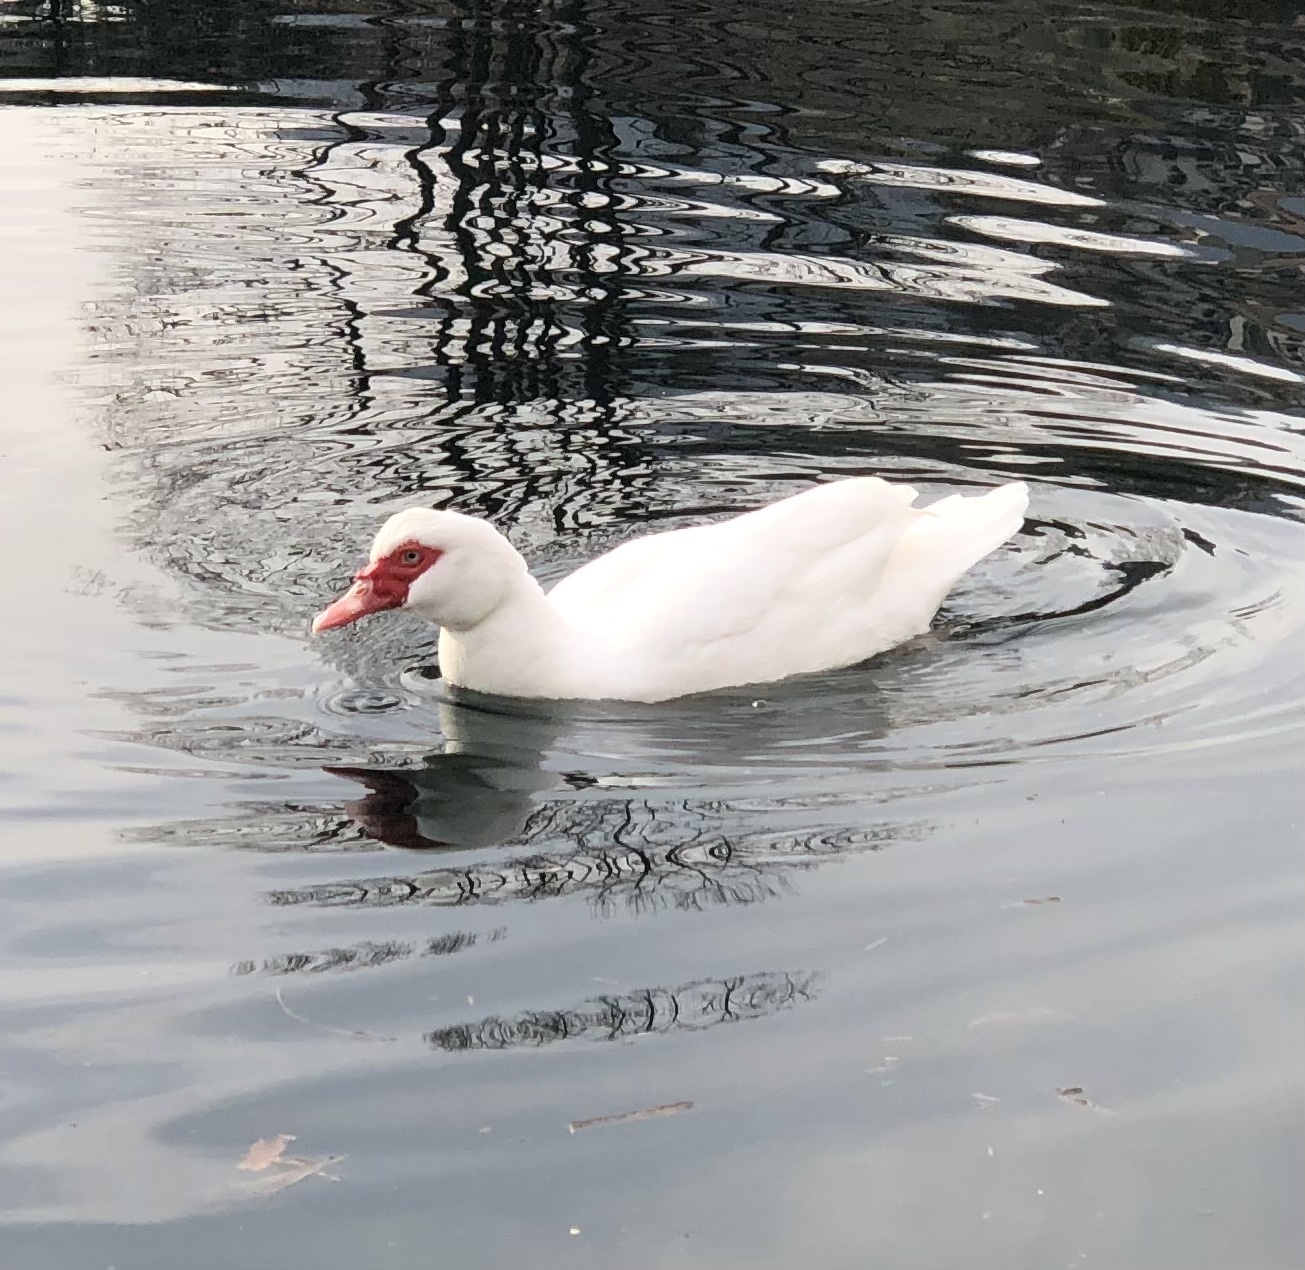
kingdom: Animalia
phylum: Chordata
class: Aves
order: Anseriformes
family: Anatidae
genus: Cairina
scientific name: Cairina moschata
